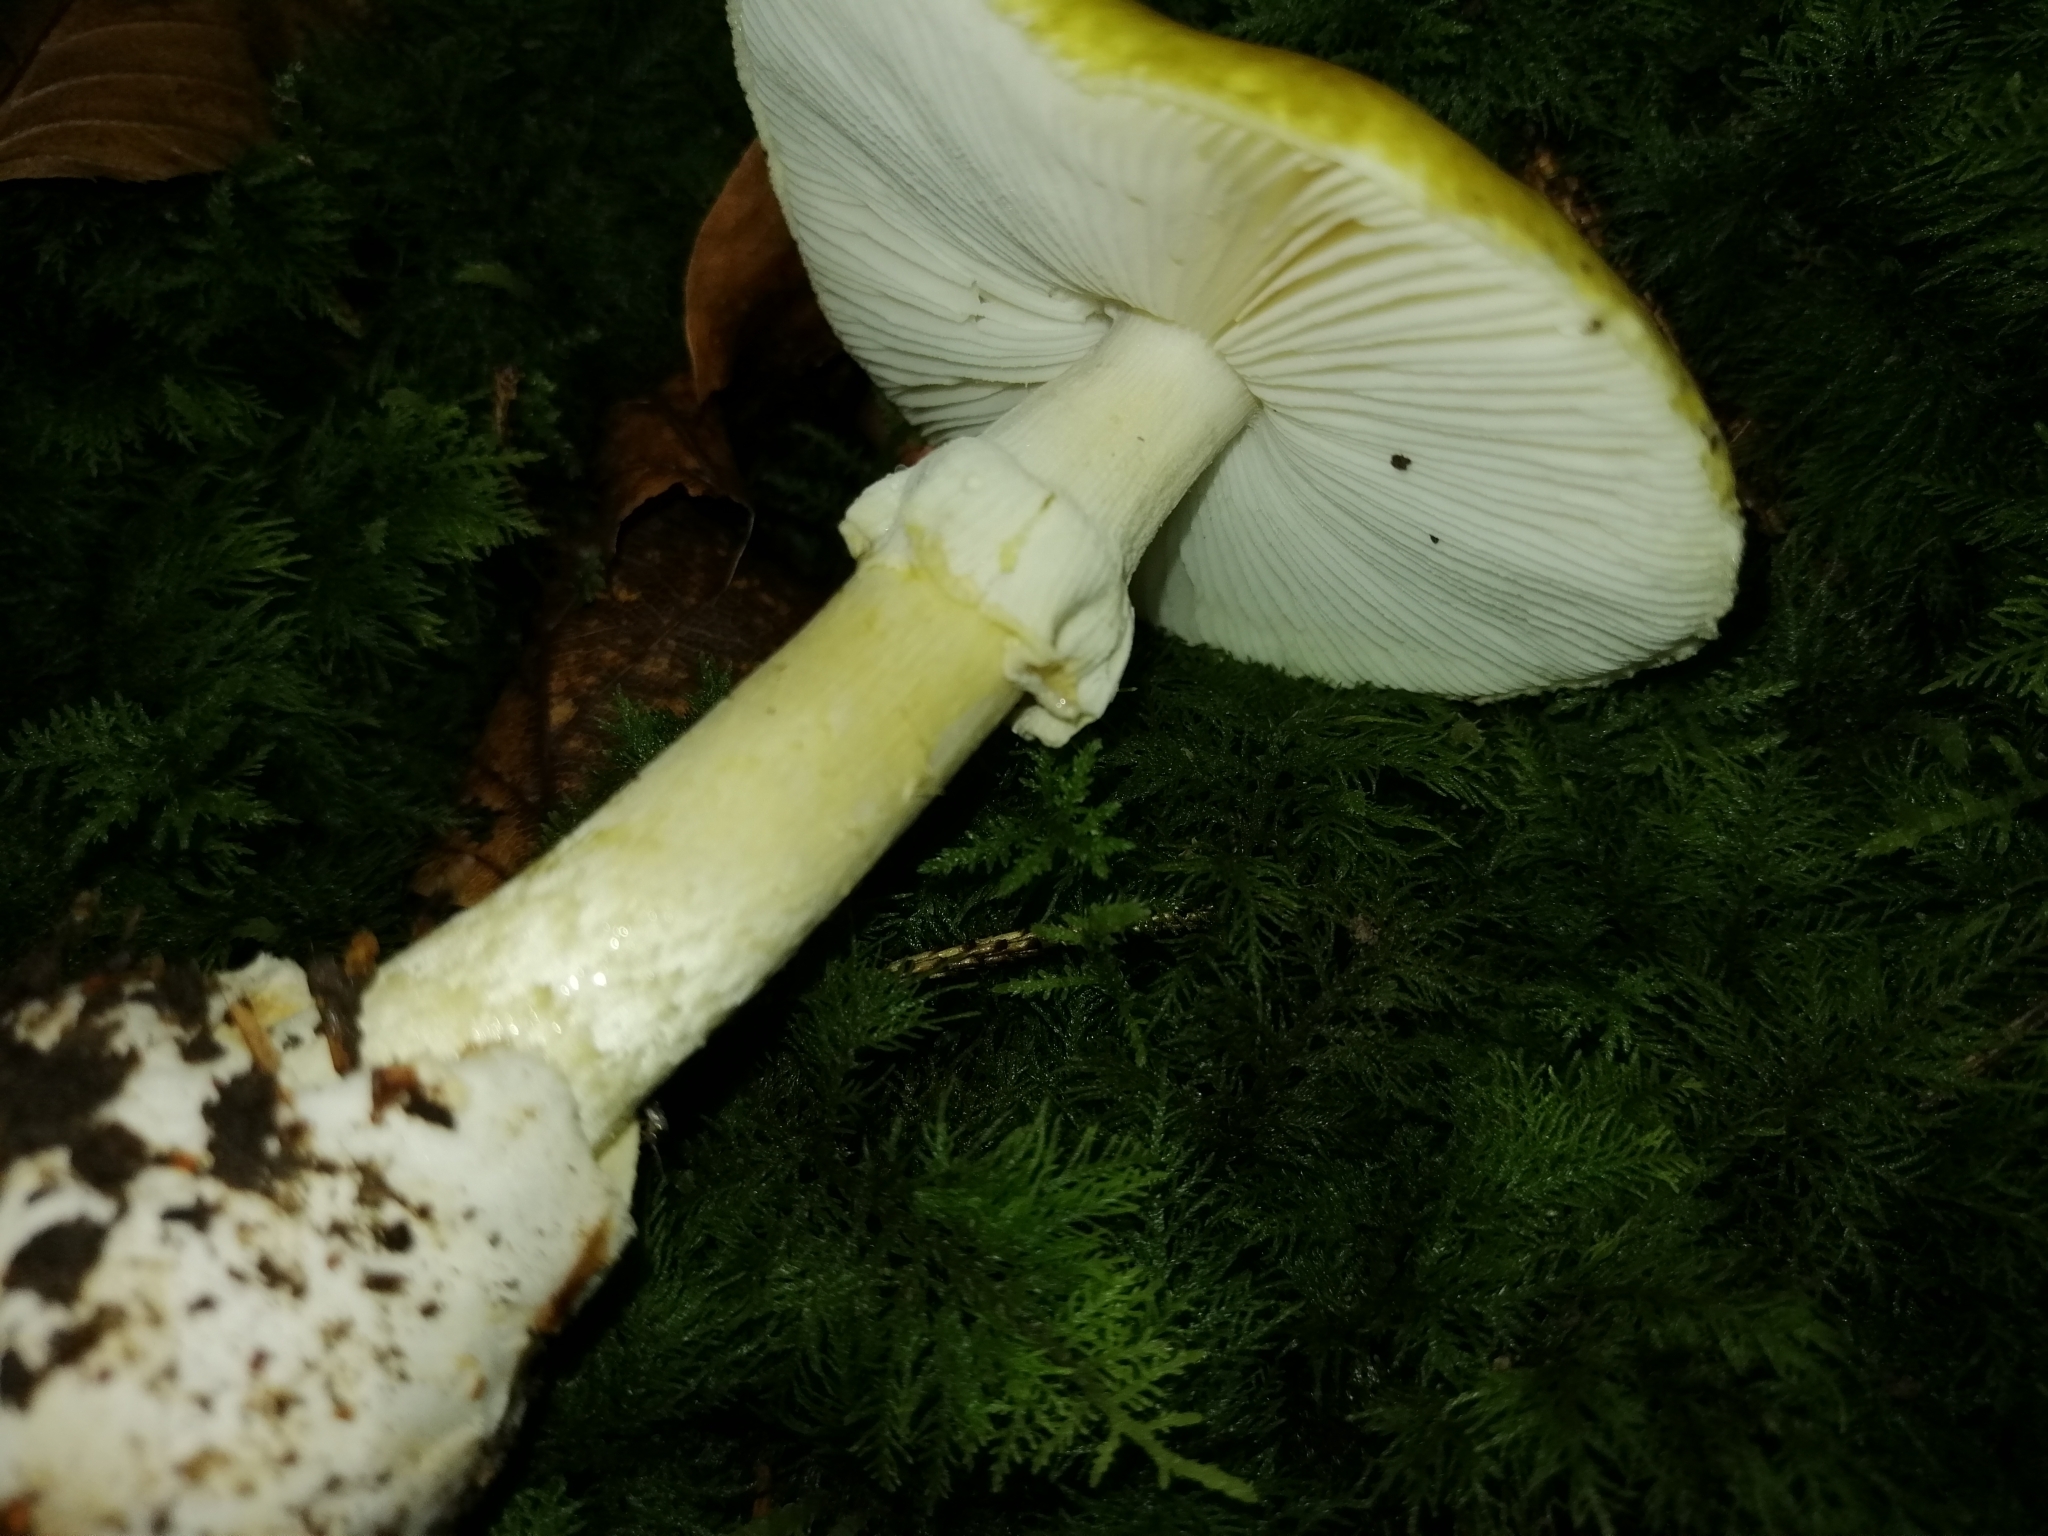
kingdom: Fungi
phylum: Basidiomycota
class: Agaricomycetes
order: Agaricales
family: Amanitaceae
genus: Amanita
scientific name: Amanita phalloides
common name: Death cap
